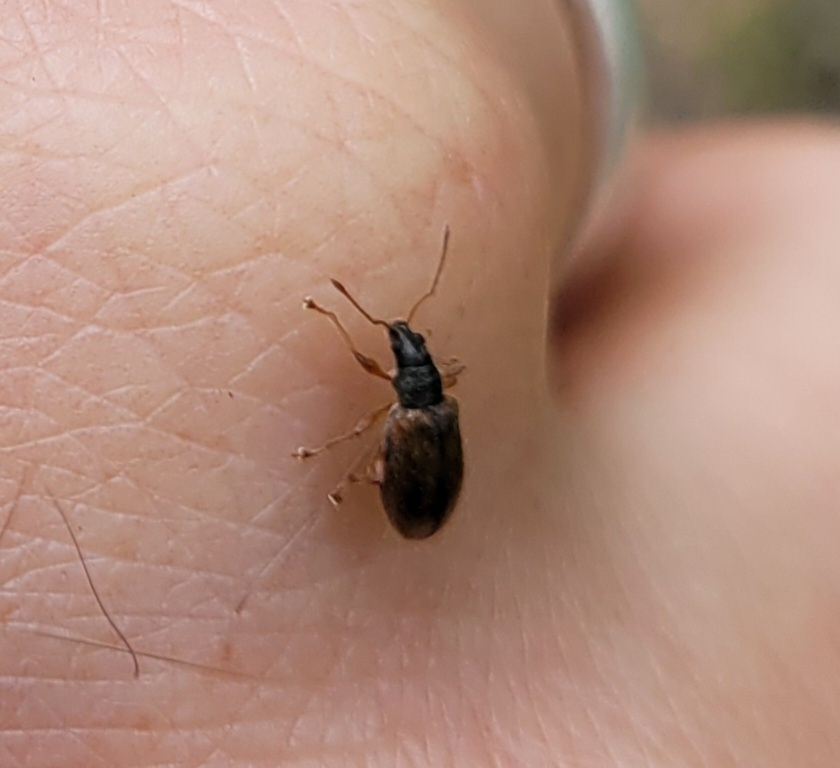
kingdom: Animalia
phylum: Arthropoda
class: Insecta
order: Coleoptera
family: Curculionidae
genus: Phyllobius
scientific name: Phyllobius oblongus
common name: Brown leaf weevil
